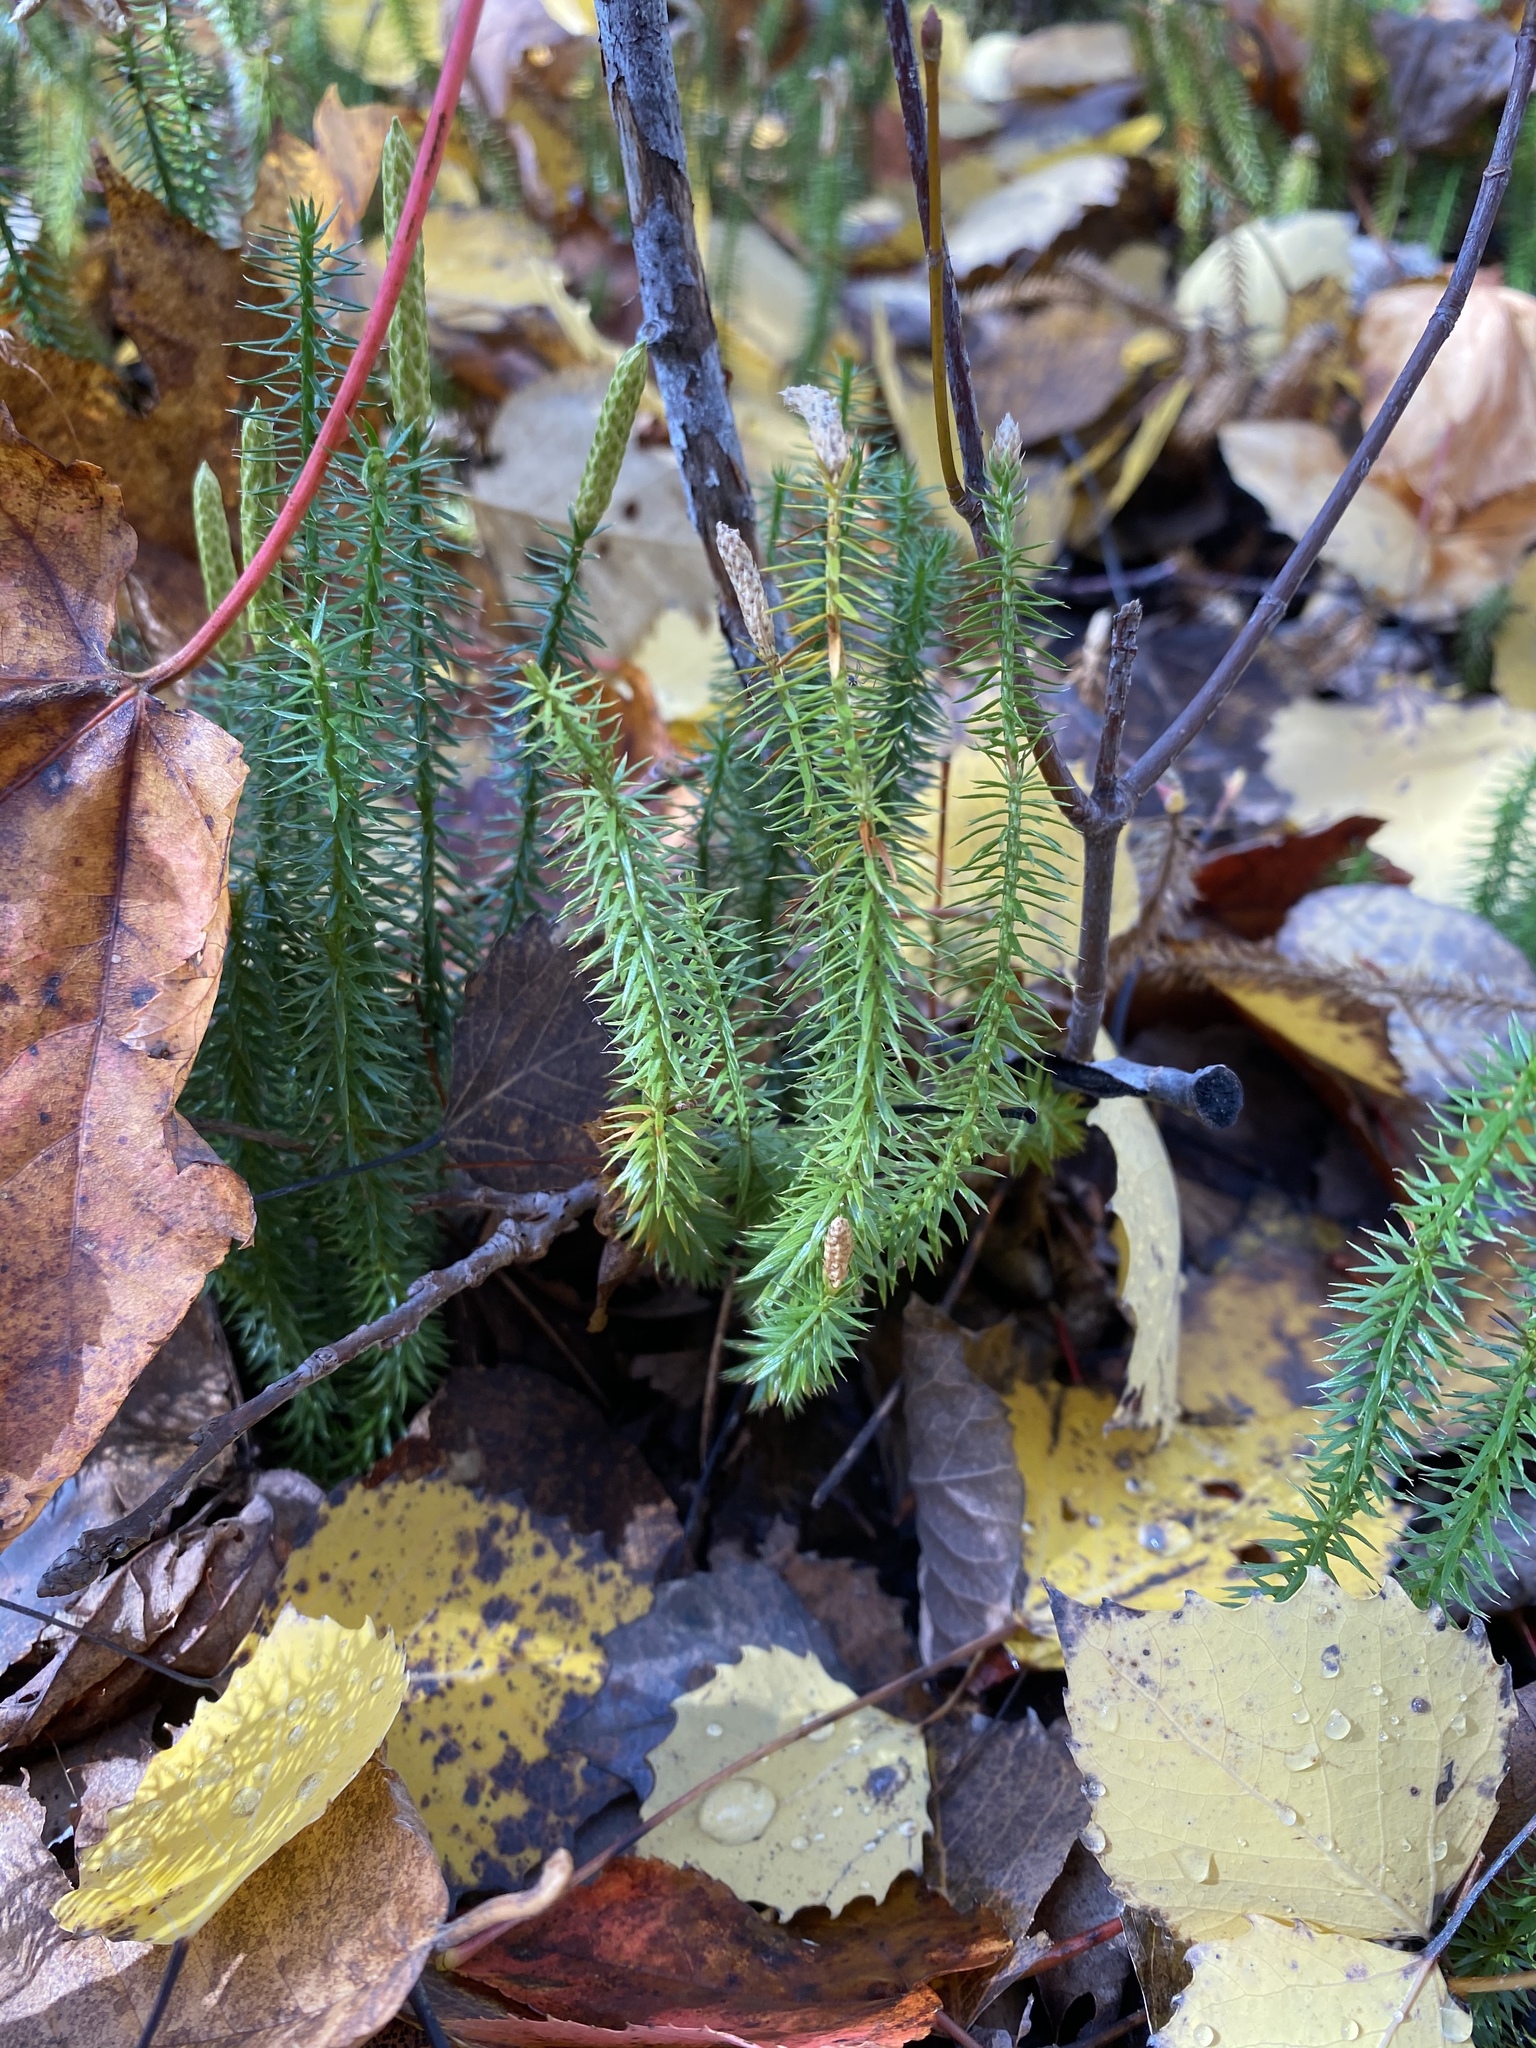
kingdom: Plantae
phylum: Tracheophyta
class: Lycopodiopsida
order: Lycopodiales
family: Lycopodiaceae
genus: Spinulum
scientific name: Spinulum annotinum
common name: Interrupted club-moss
